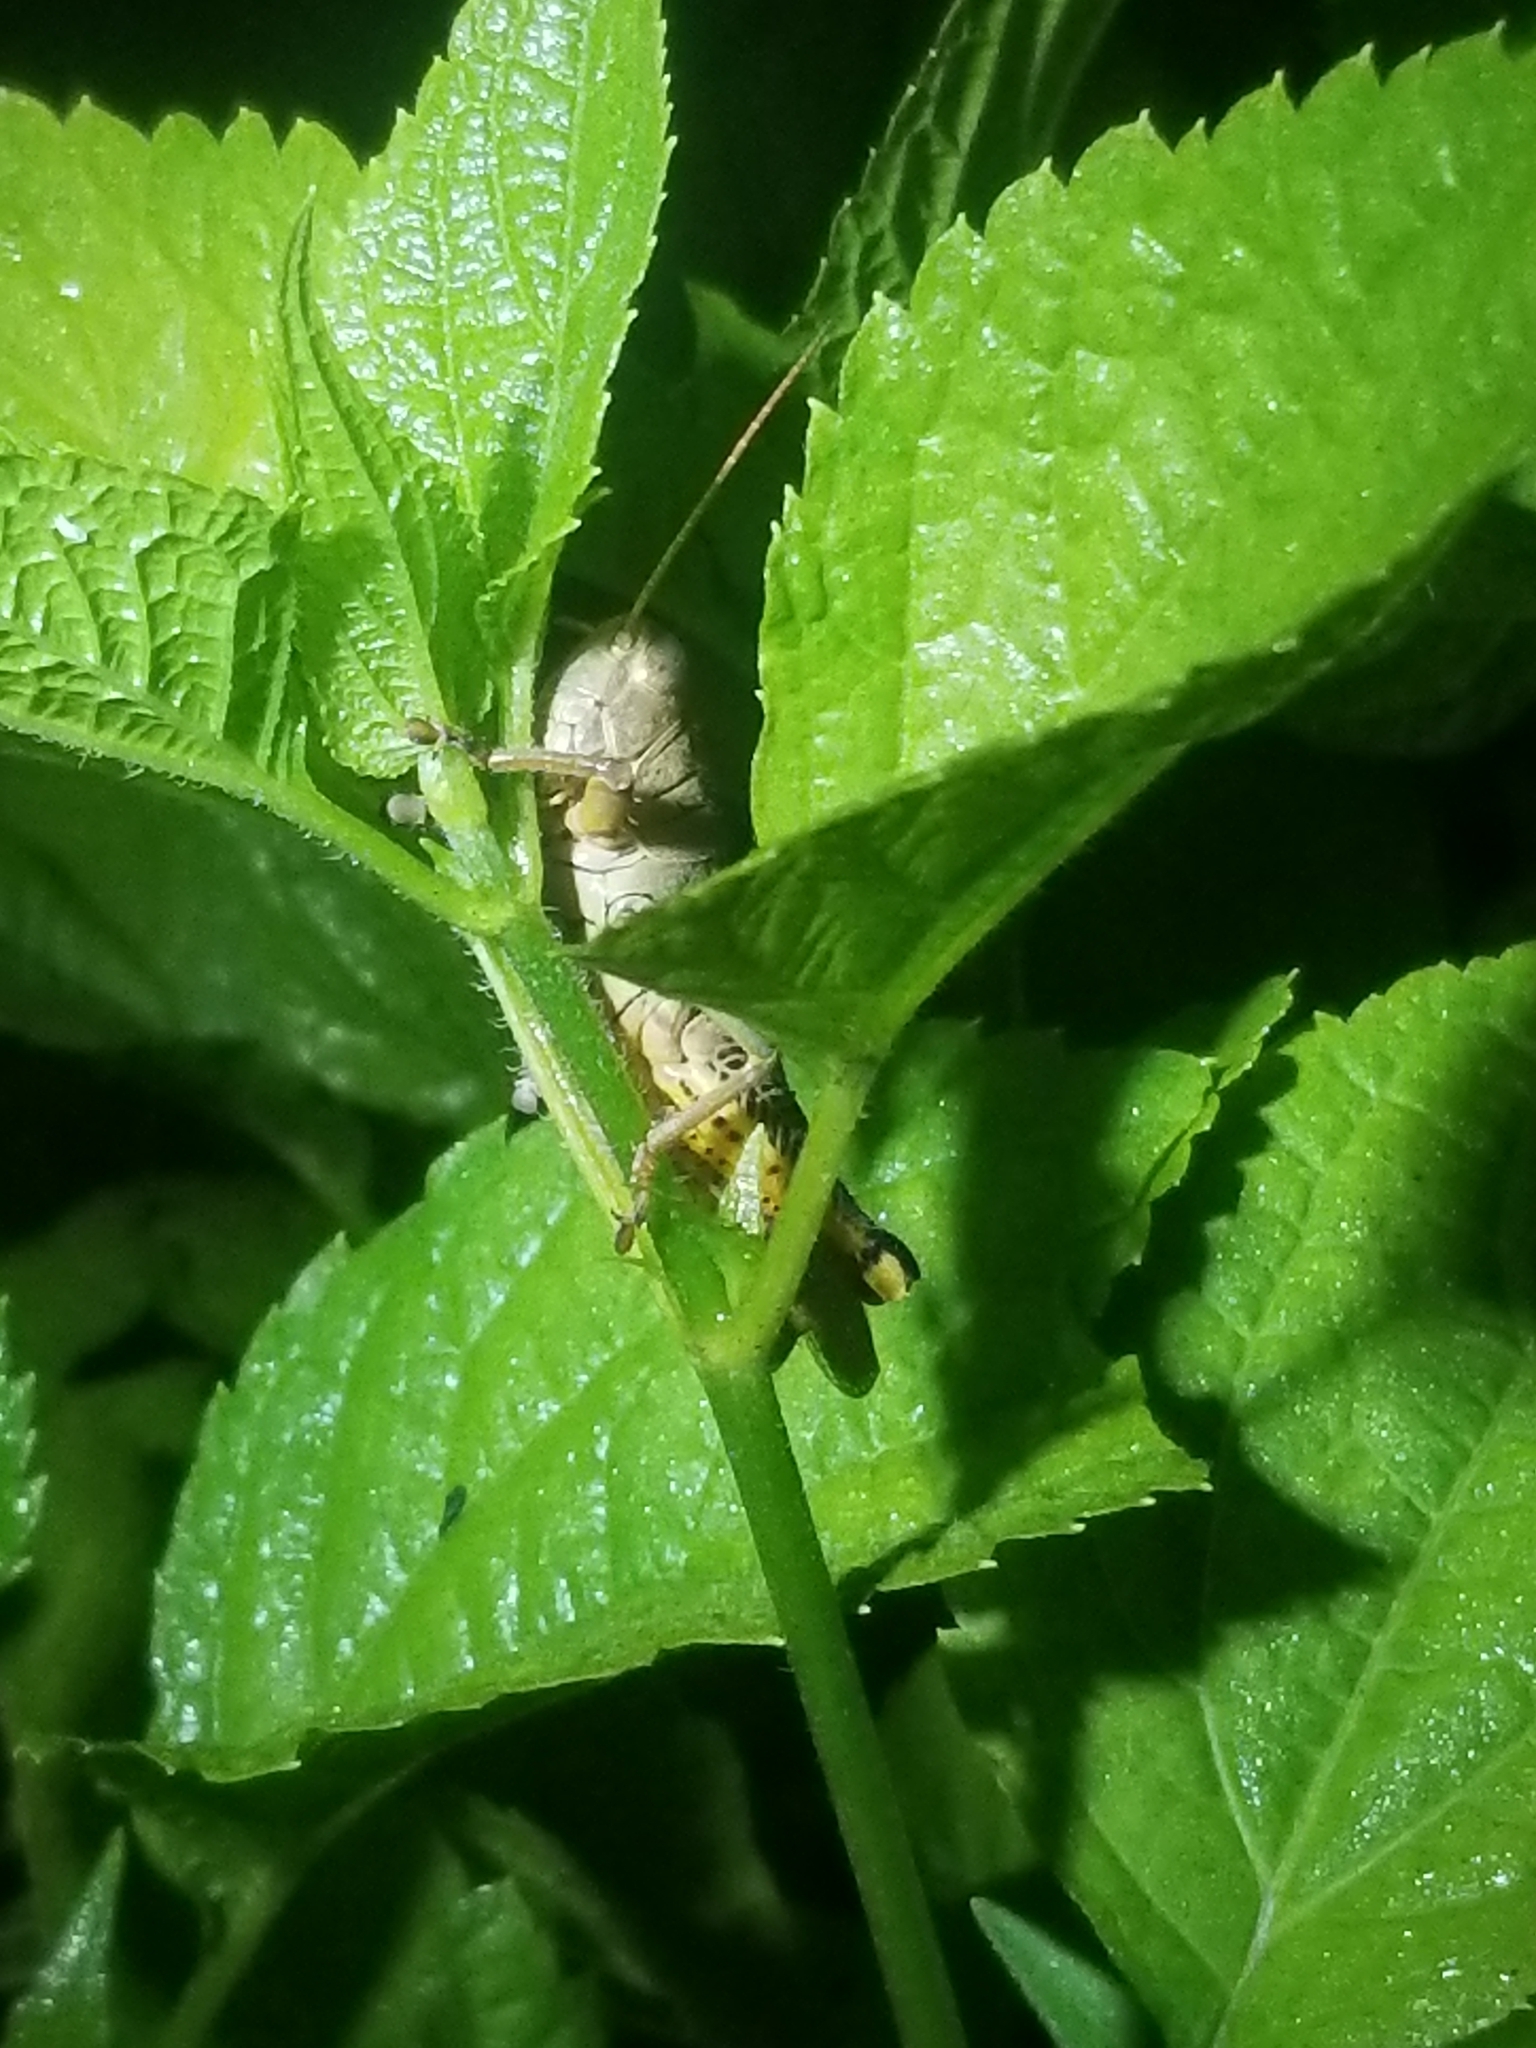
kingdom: Animalia
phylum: Arthropoda
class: Insecta
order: Orthoptera
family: Acrididae
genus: Melanoplus
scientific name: Melanoplus differentialis
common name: Differential grasshopper
